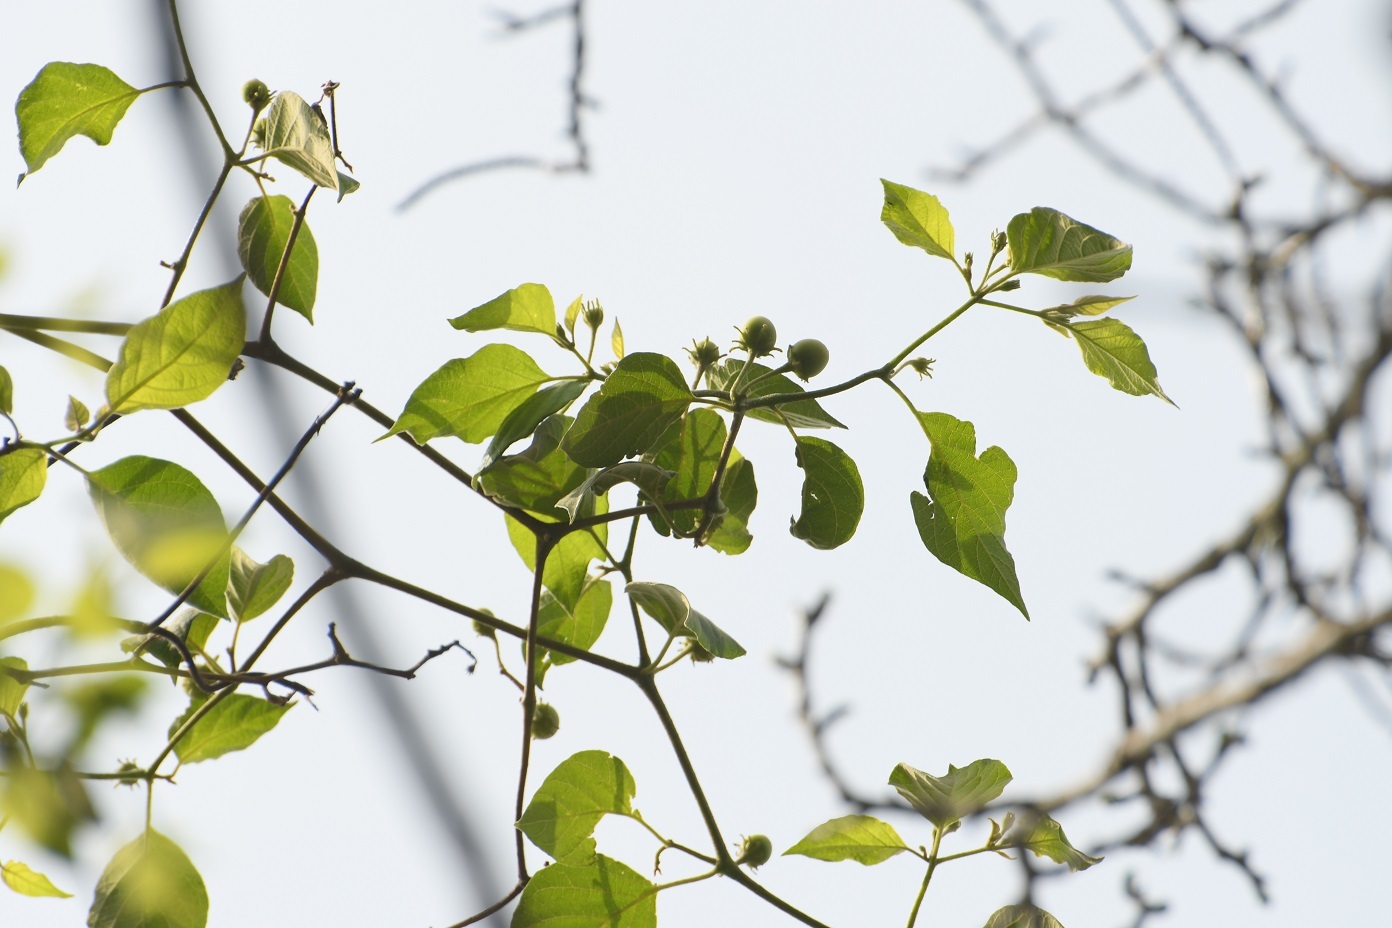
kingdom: Plantae
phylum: Tracheophyta
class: Magnoliopsida
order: Solanales
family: Solanaceae
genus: Lycianthes
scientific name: Lycianthes scandens
